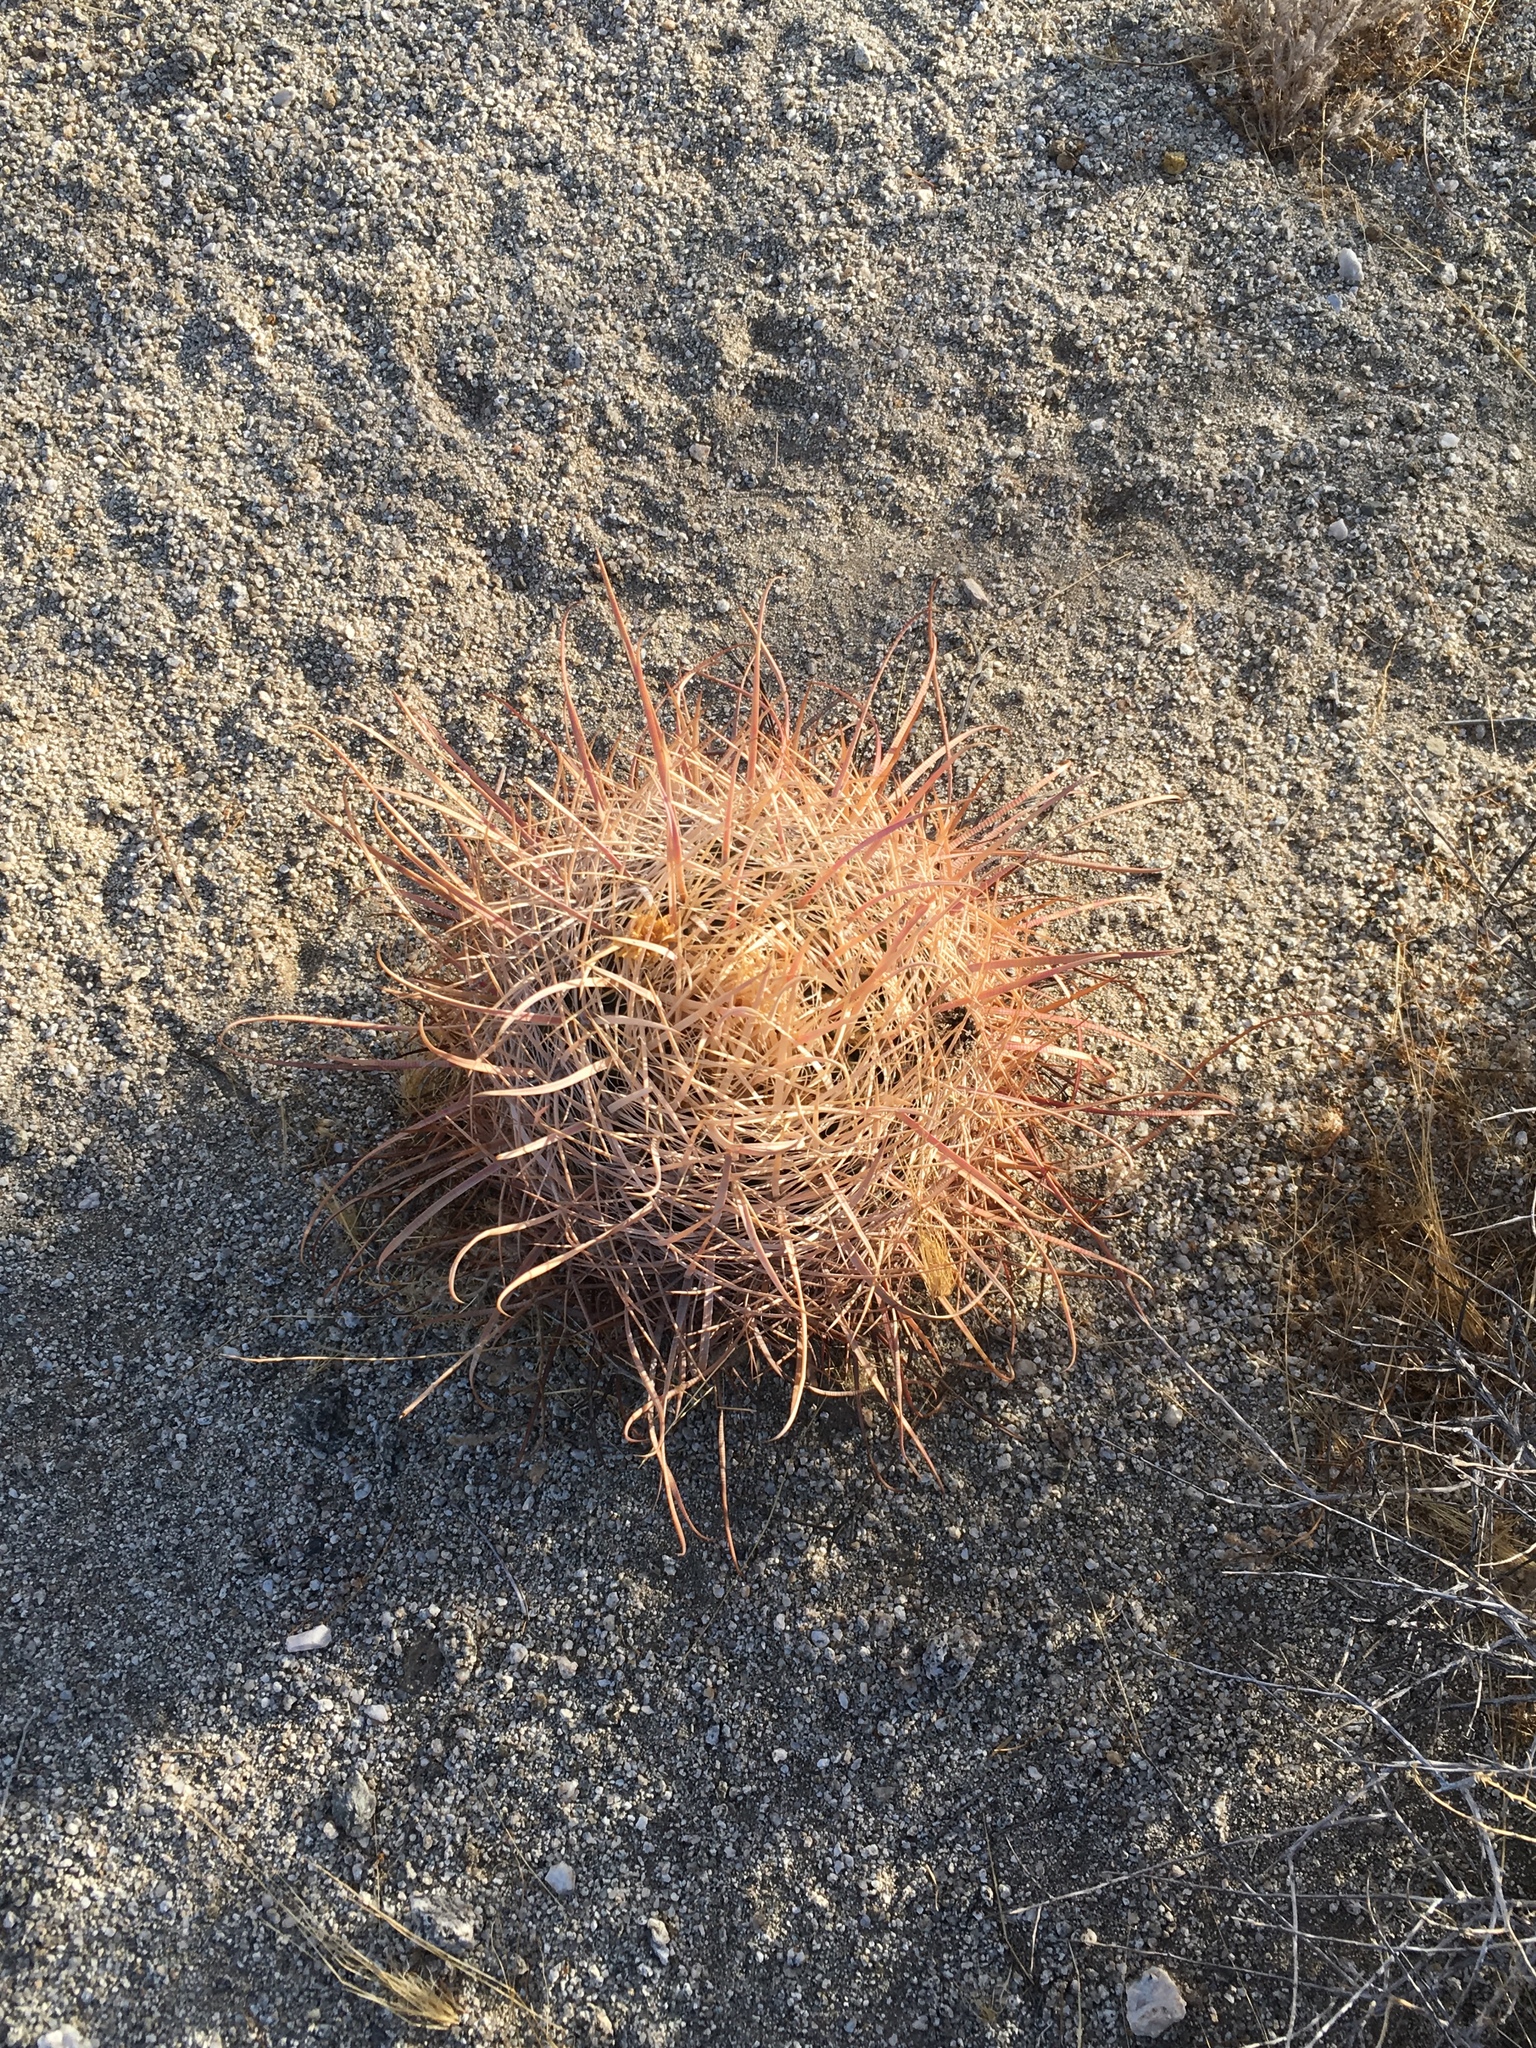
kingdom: Plantae
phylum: Tracheophyta
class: Magnoliopsida
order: Caryophyllales
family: Cactaceae
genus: Ferocactus
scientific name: Ferocactus cylindraceus
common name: California barrel cactus
